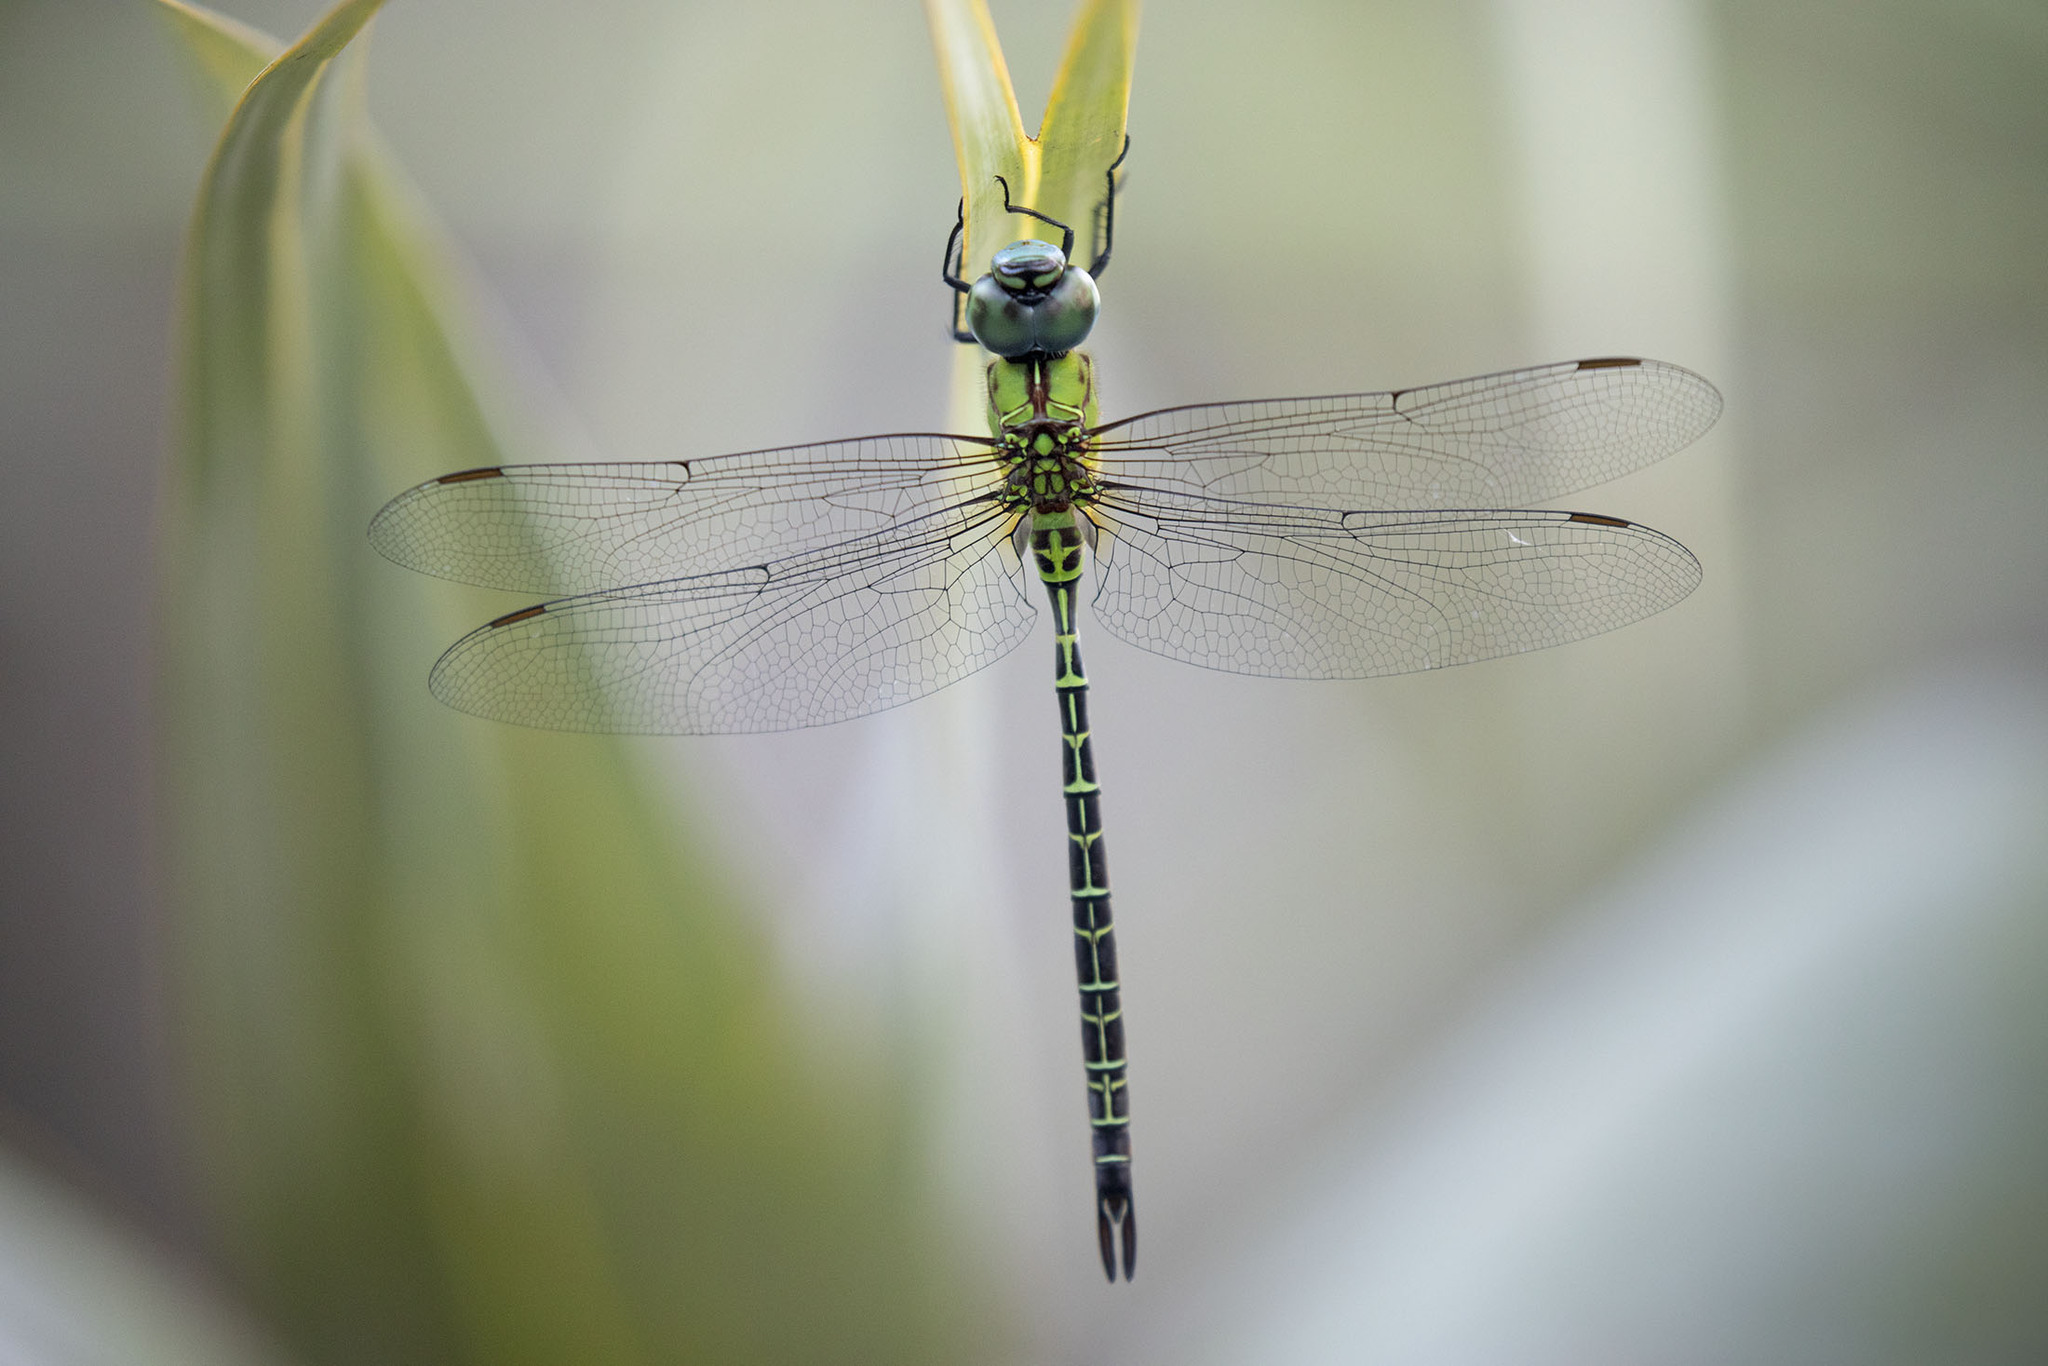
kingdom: Animalia
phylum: Arthropoda
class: Insecta
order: Odonata
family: Aeshnidae
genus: Coryphaeschna
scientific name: Coryphaeschna adnexa
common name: Blue-faced darner
